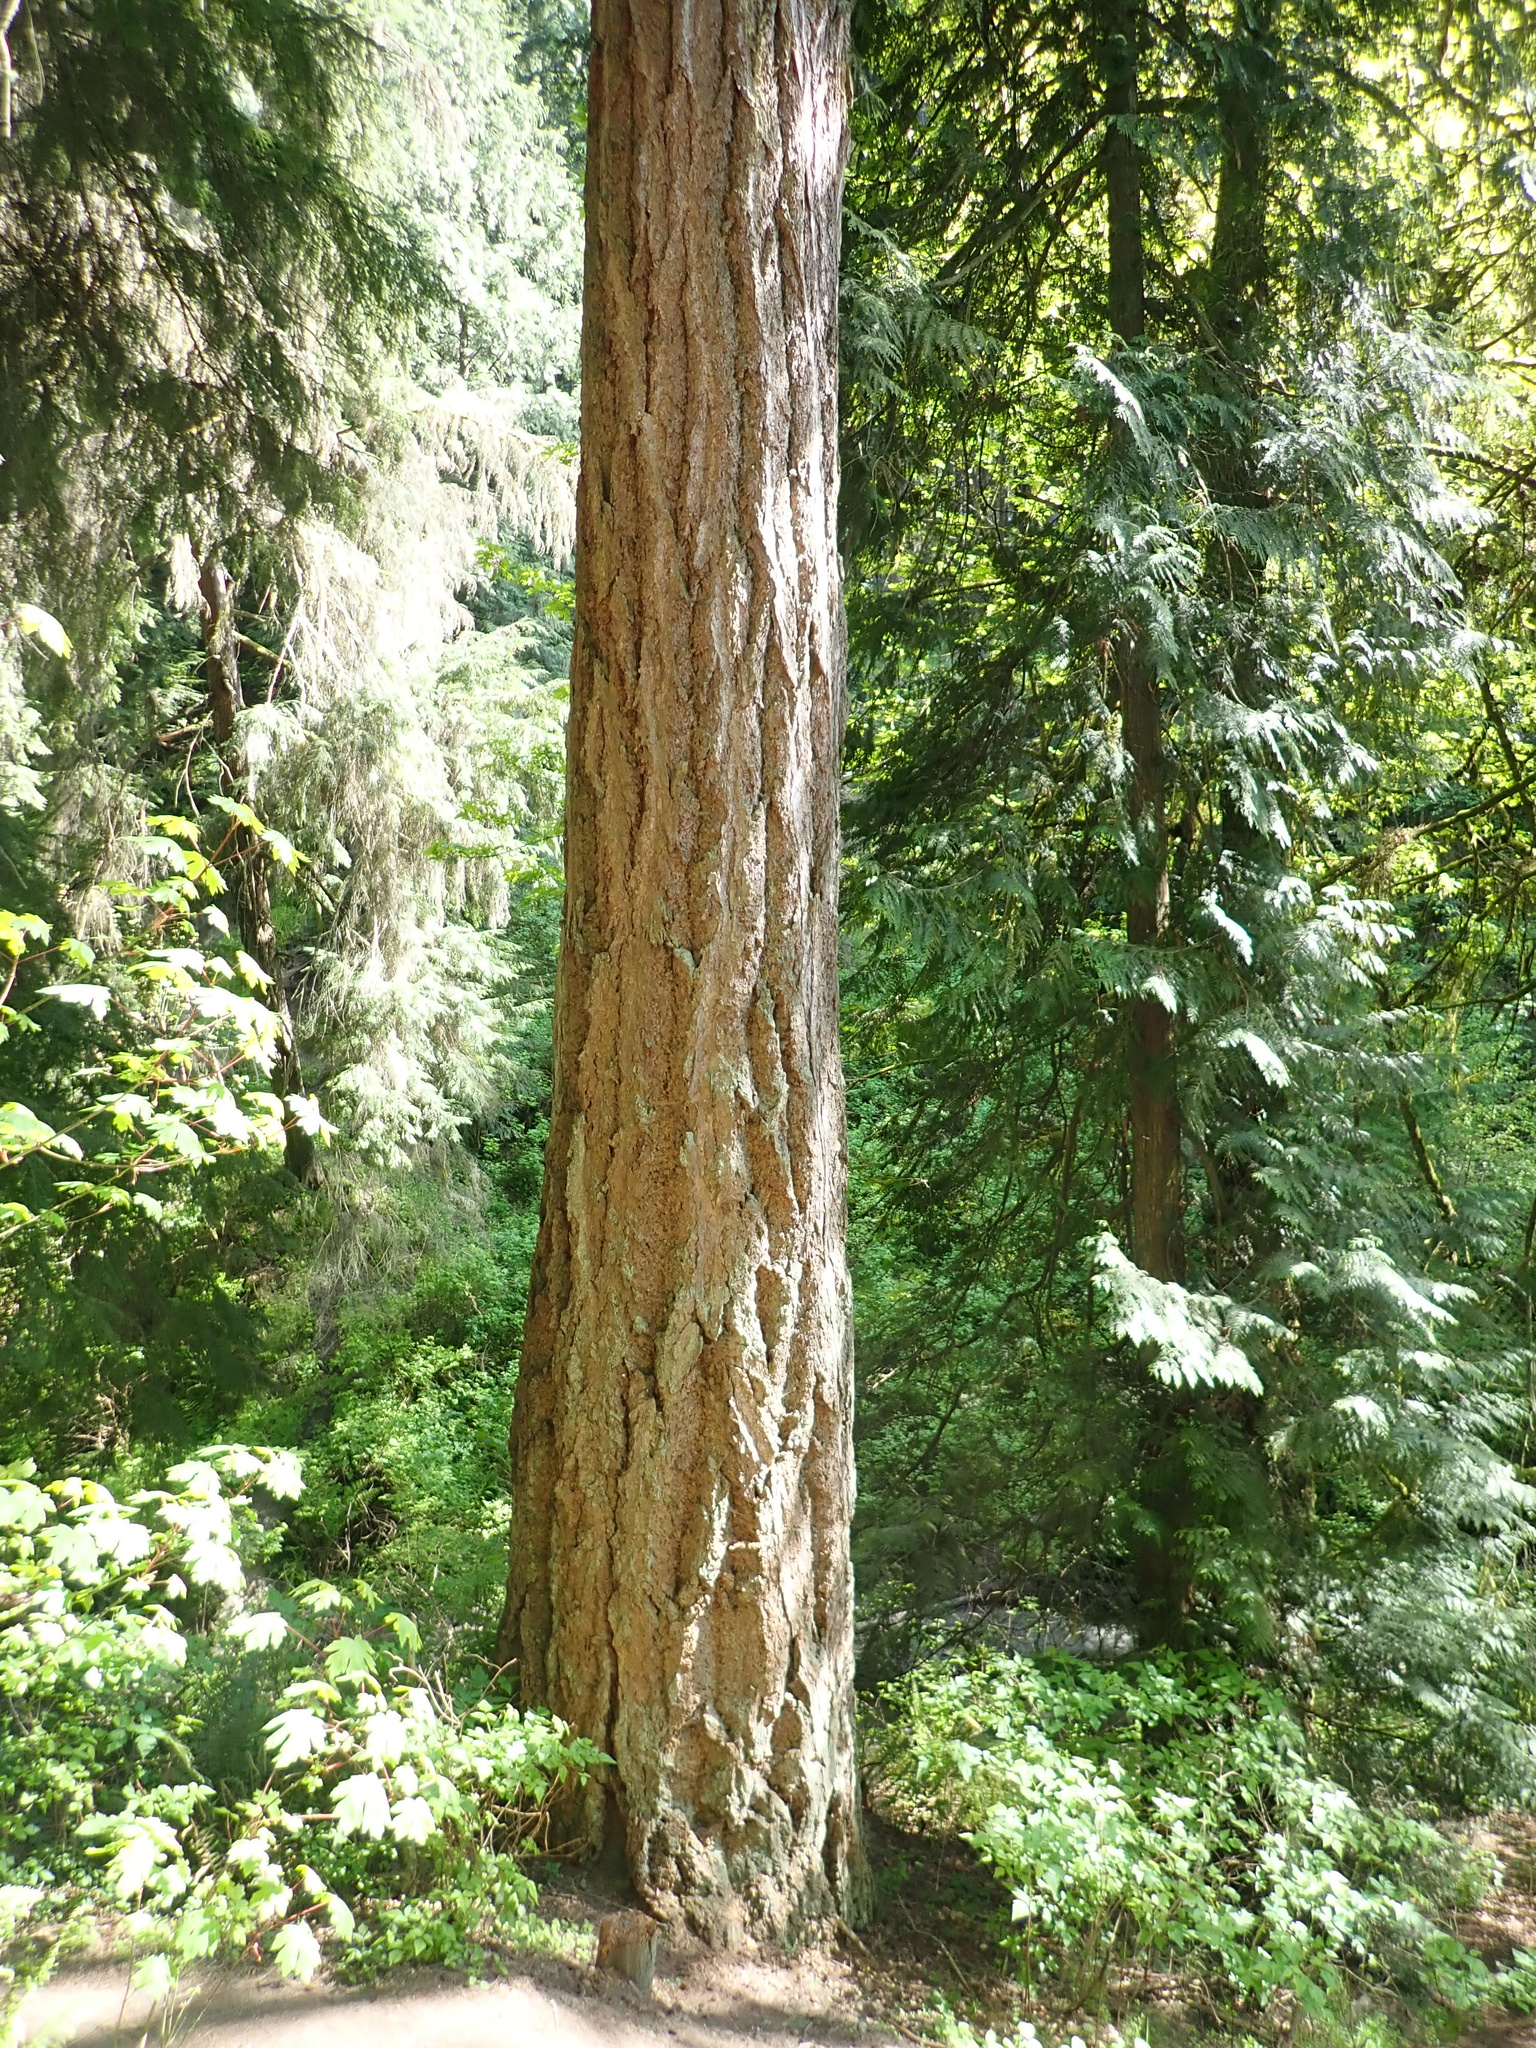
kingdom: Plantae
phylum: Tracheophyta
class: Pinopsida
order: Pinales
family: Pinaceae
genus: Pseudotsuga
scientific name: Pseudotsuga menziesii
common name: Douglas fir
